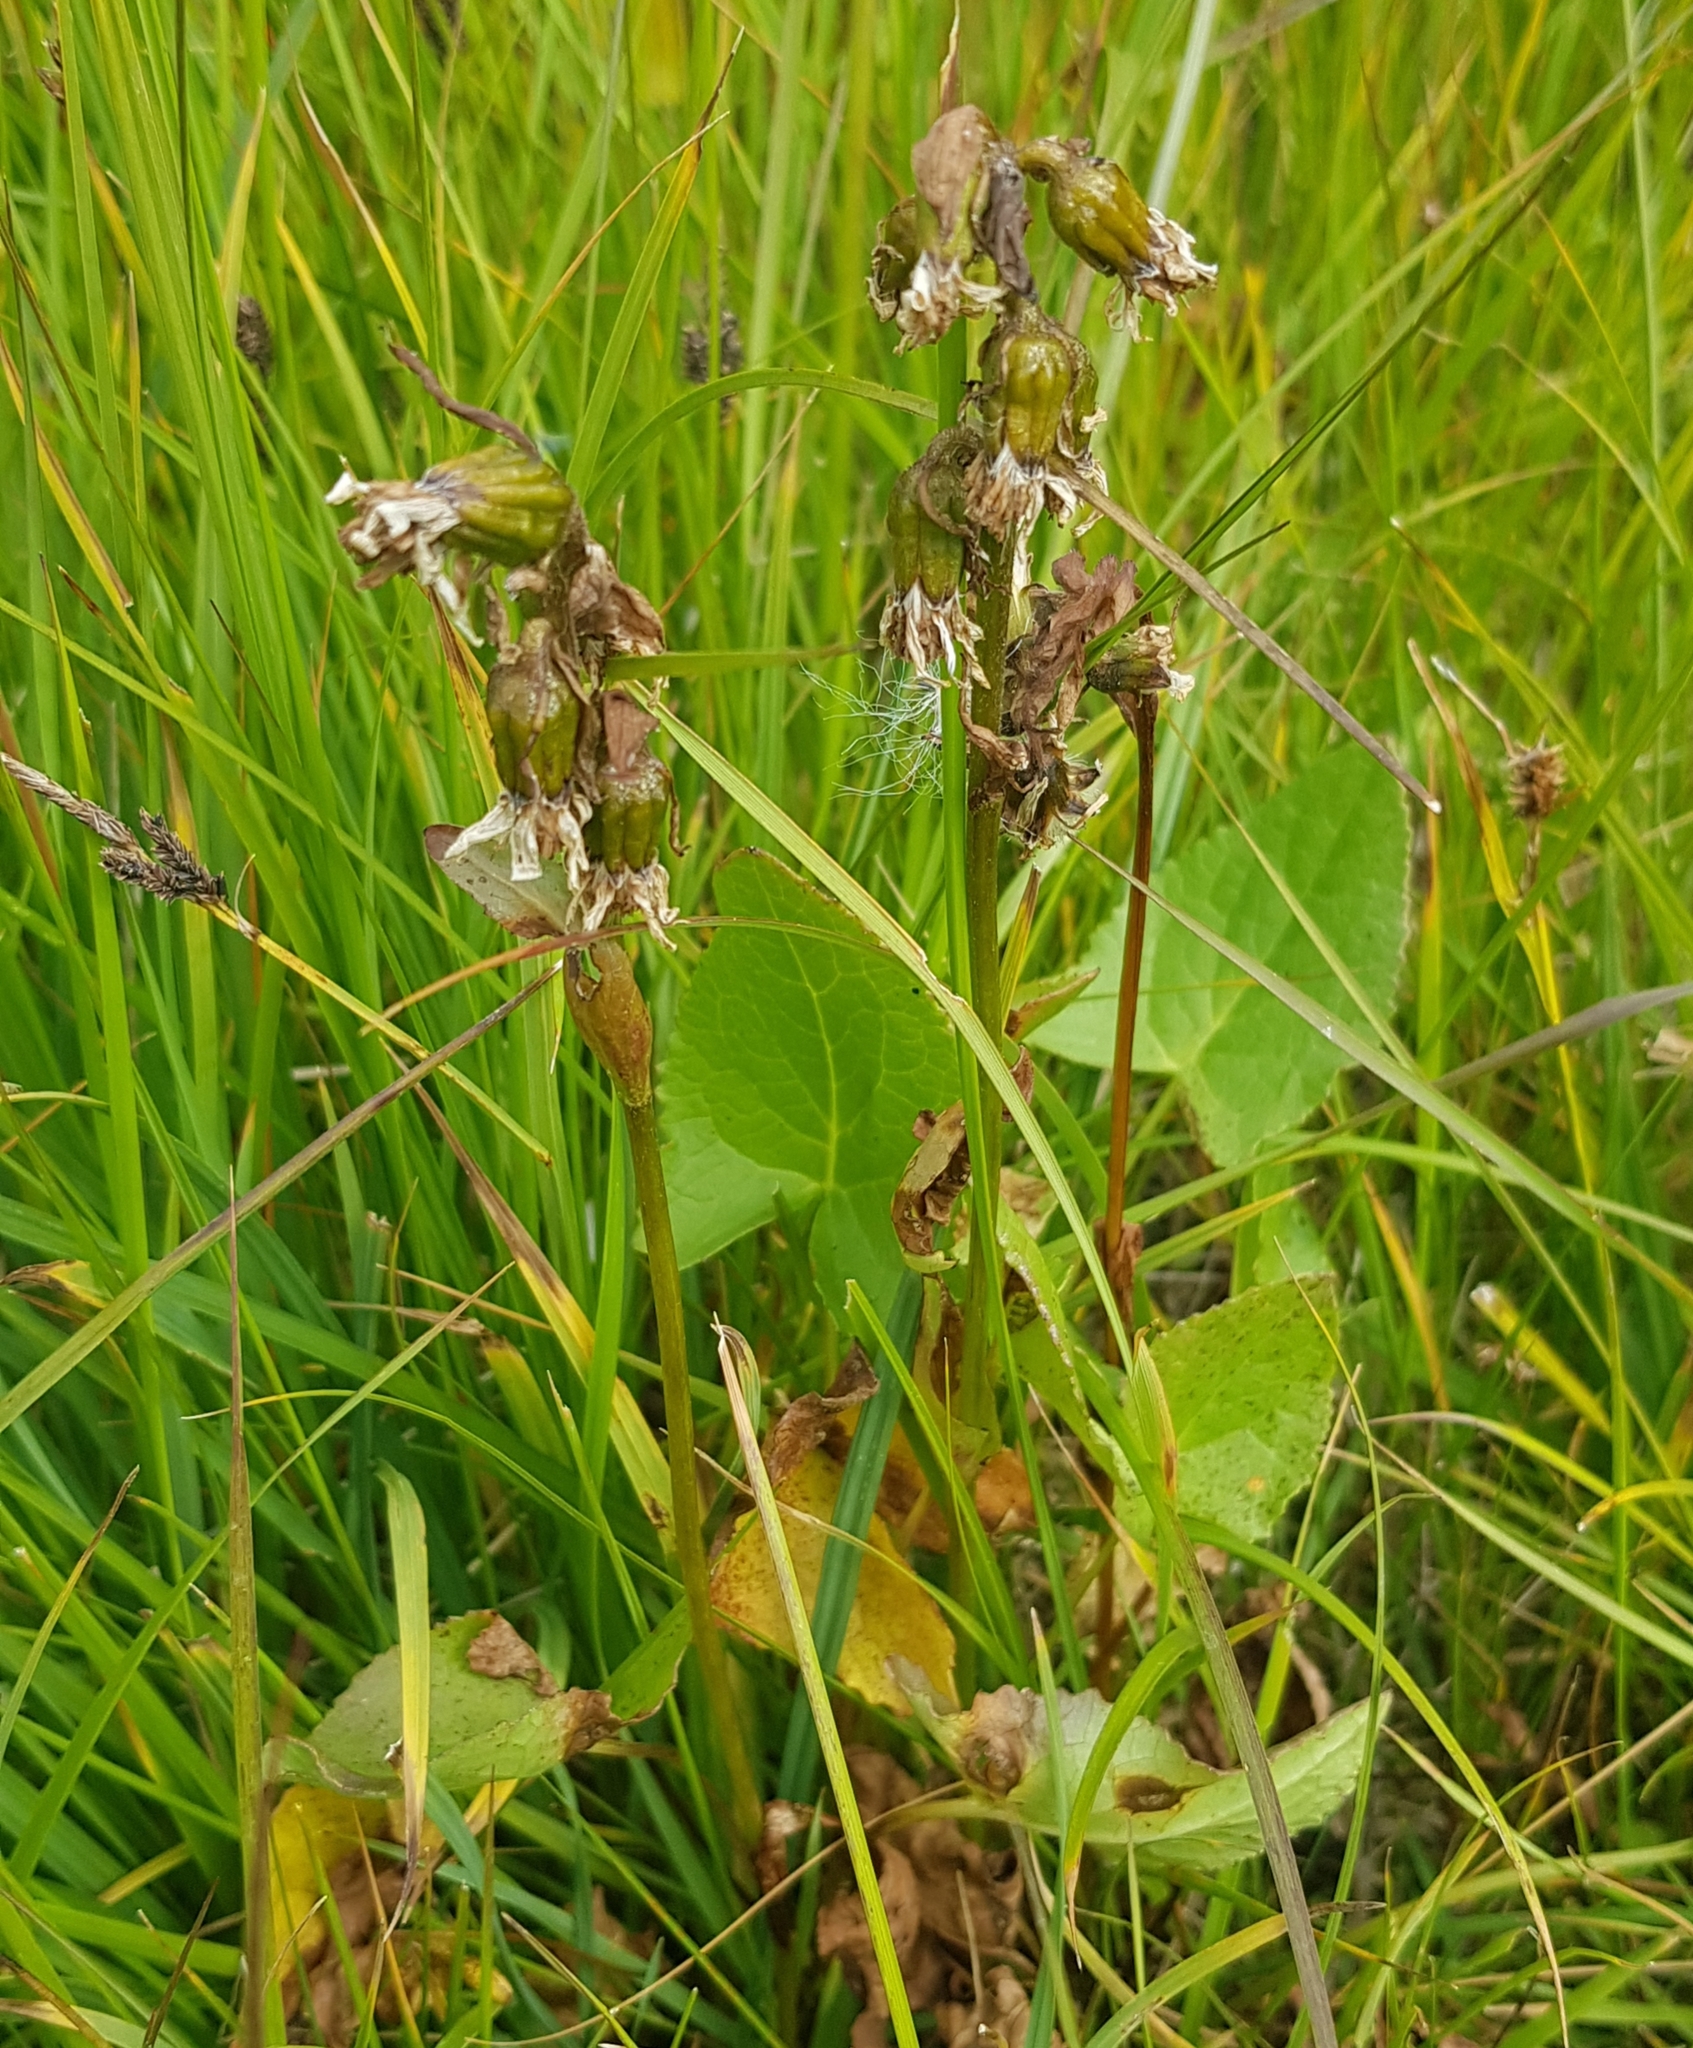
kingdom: Plantae
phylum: Tracheophyta
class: Magnoliopsida
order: Asterales
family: Asteraceae
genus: Ligularia
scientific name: Ligularia sibirica
